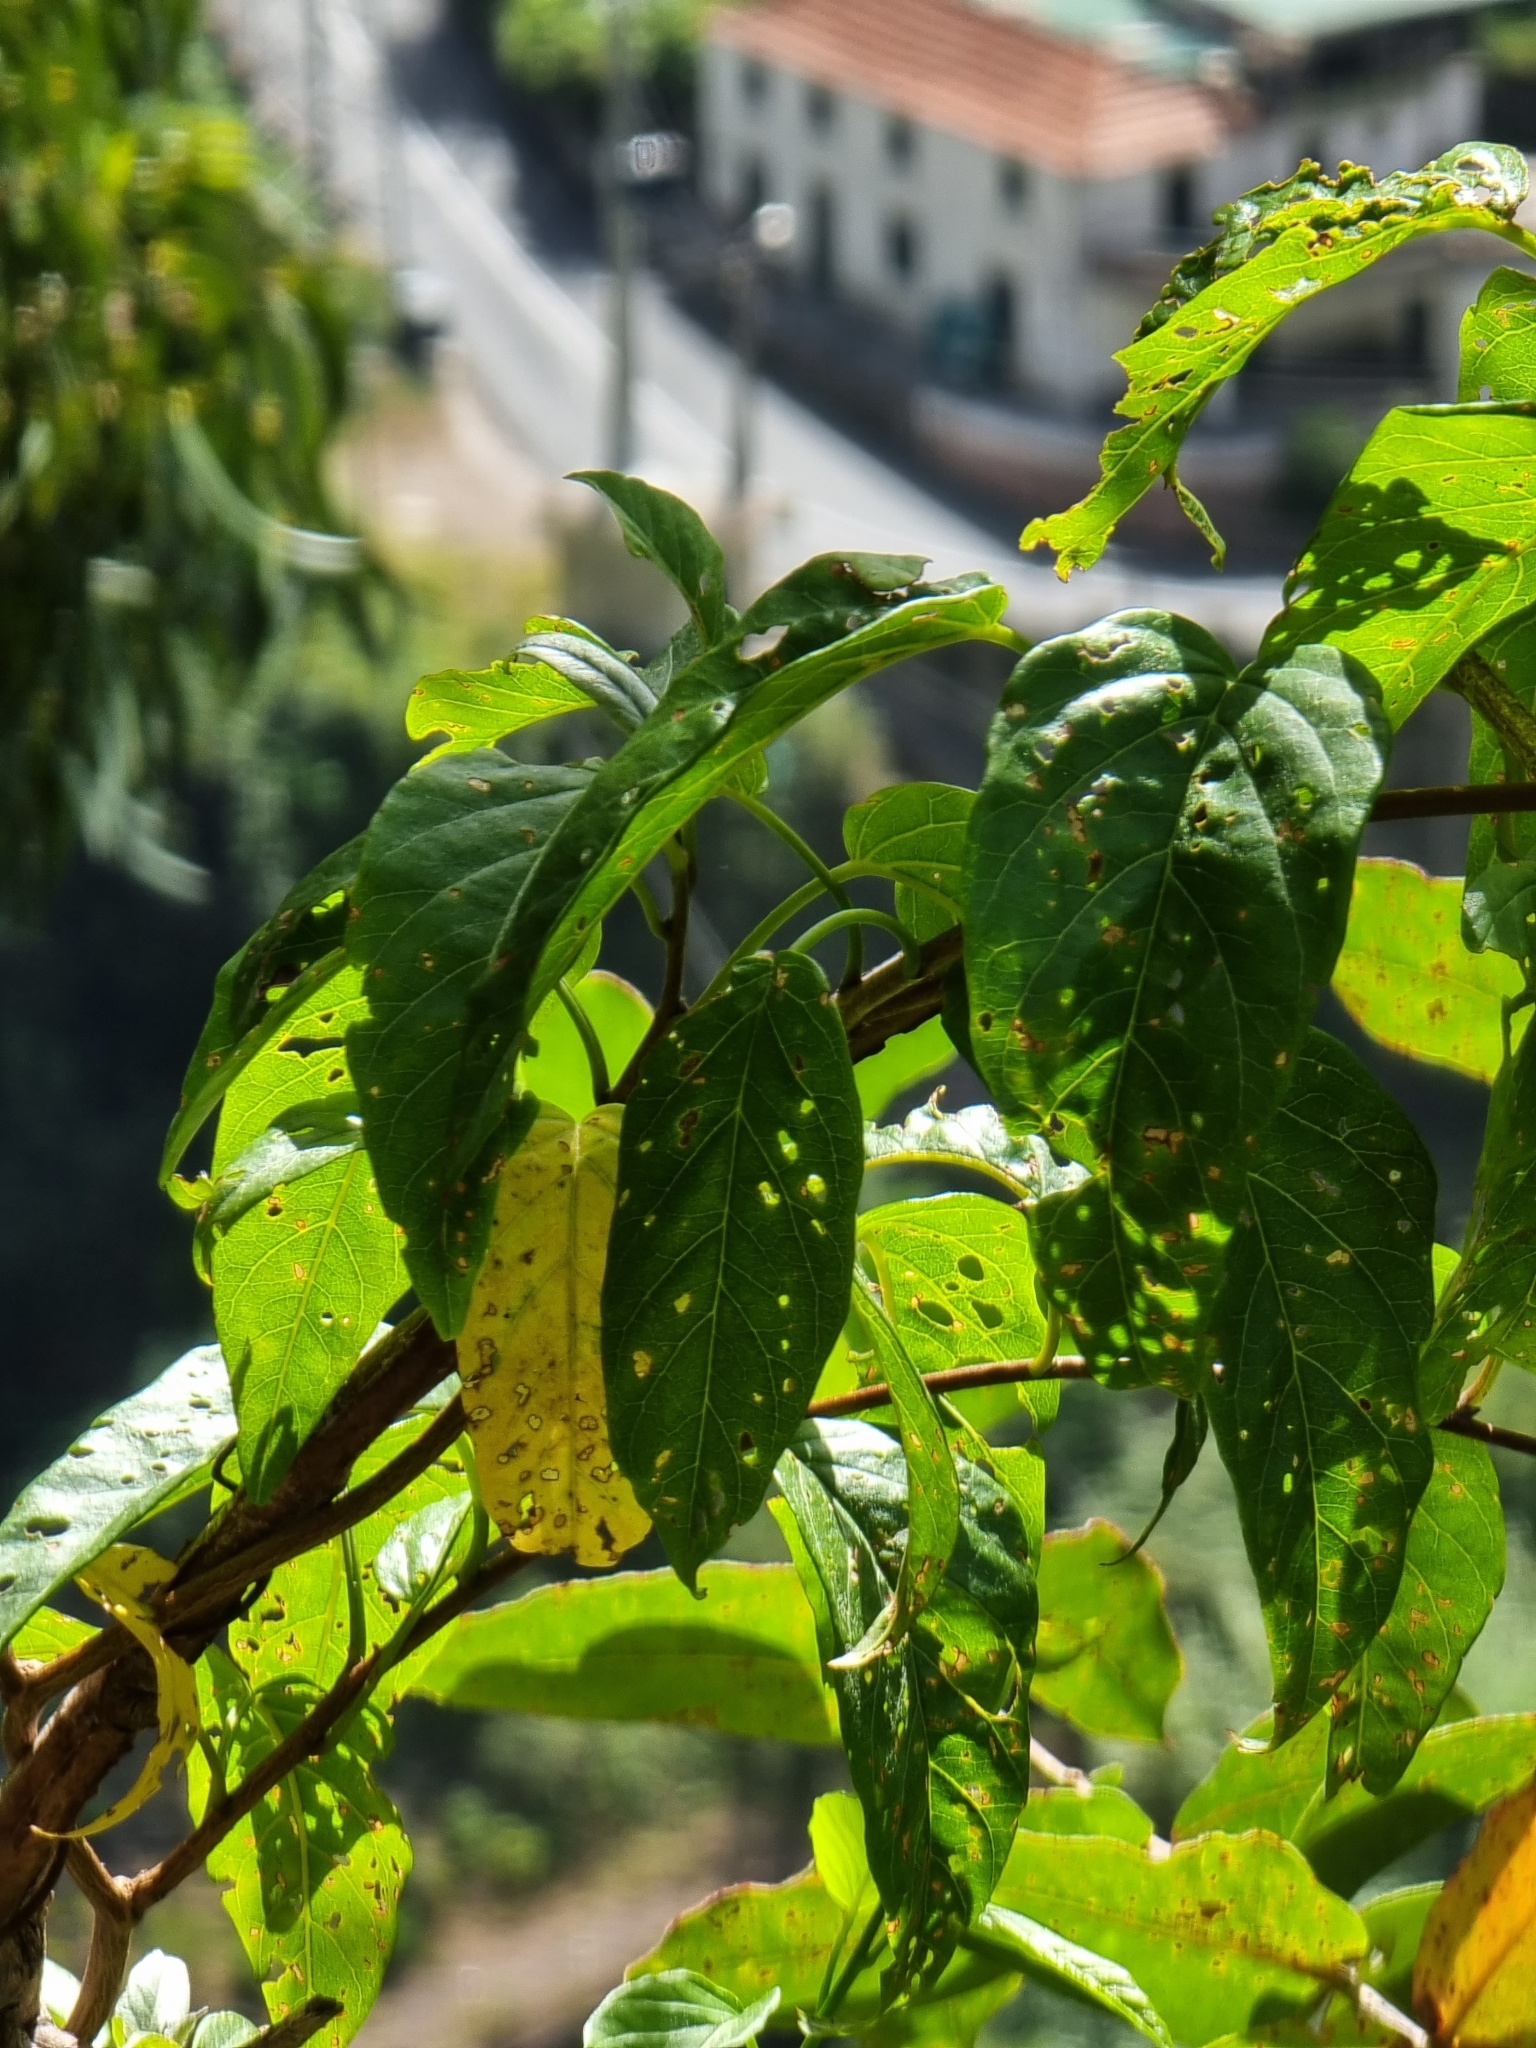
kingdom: Plantae
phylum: Tracheophyta
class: Magnoliopsida
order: Solanales
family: Convolvulaceae
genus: Convolvulus
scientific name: Convolvulus massonii
